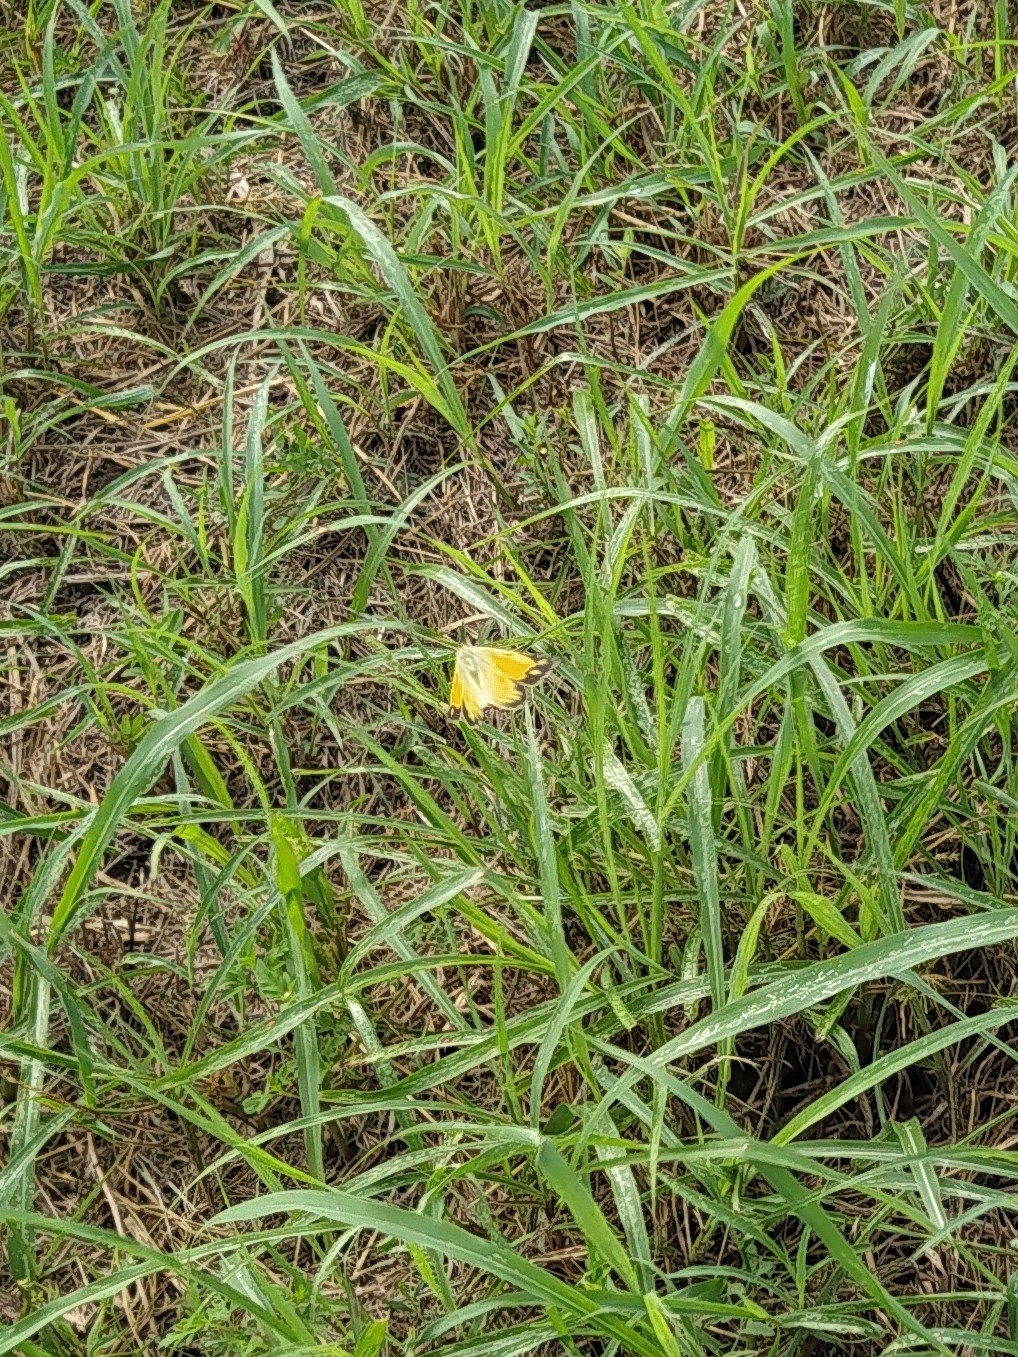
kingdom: Animalia
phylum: Arthropoda
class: Insecta
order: Lepidoptera
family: Pieridae
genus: Colias
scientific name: Colias croceus
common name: Clouded yellow
